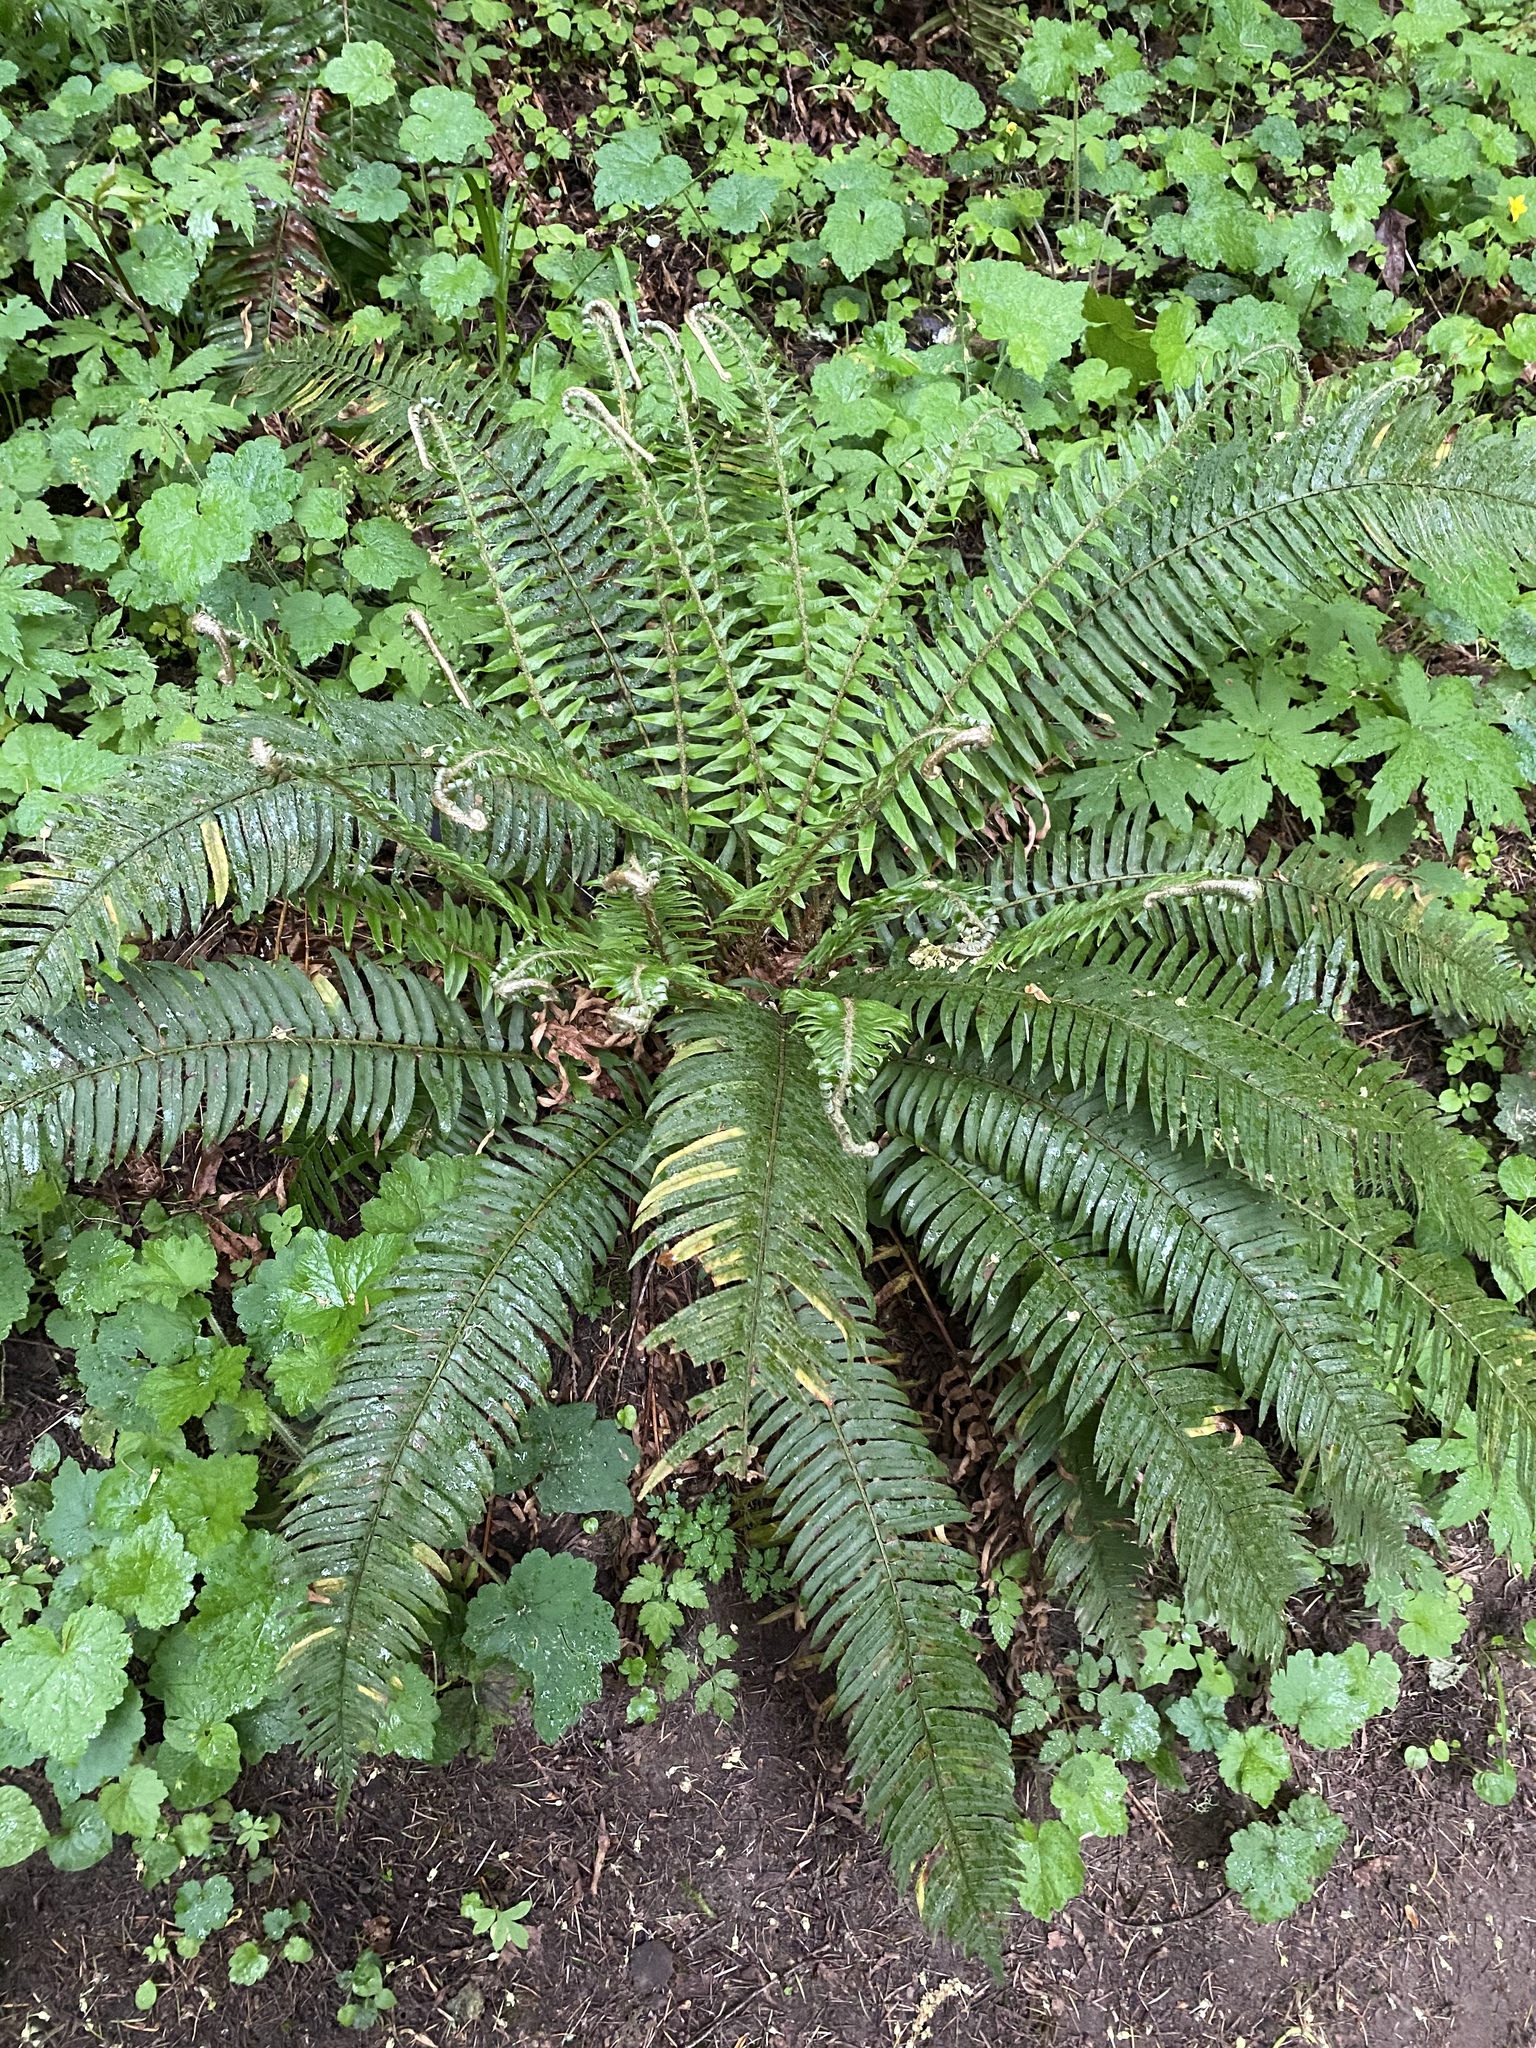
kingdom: Plantae
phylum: Tracheophyta
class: Polypodiopsida
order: Polypodiales
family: Dryopteridaceae
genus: Polystichum
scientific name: Polystichum munitum
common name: Western sword-fern
